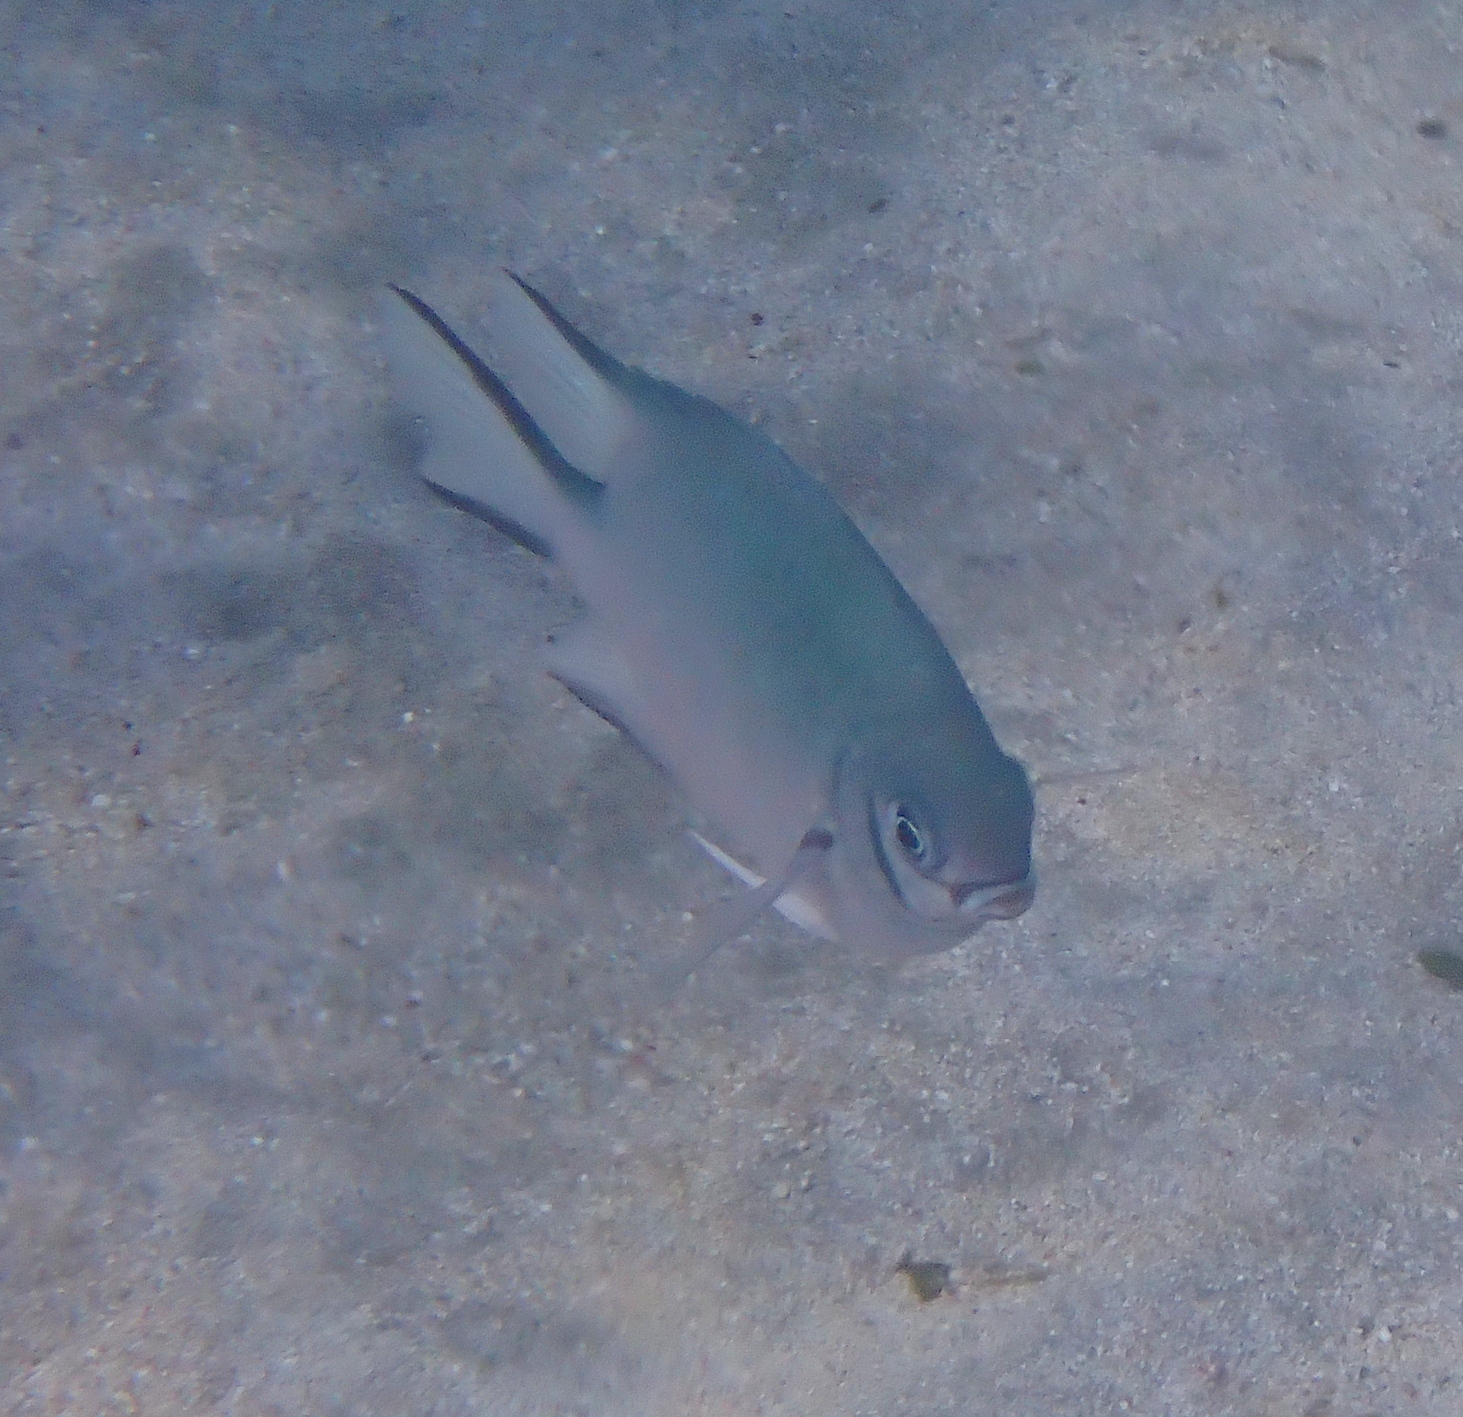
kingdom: Animalia
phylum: Chordata
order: Perciformes
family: Pomacentridae
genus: Amblyglyphidodon
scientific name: Amblyglyphidodon indicus
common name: Maldives damselfish
